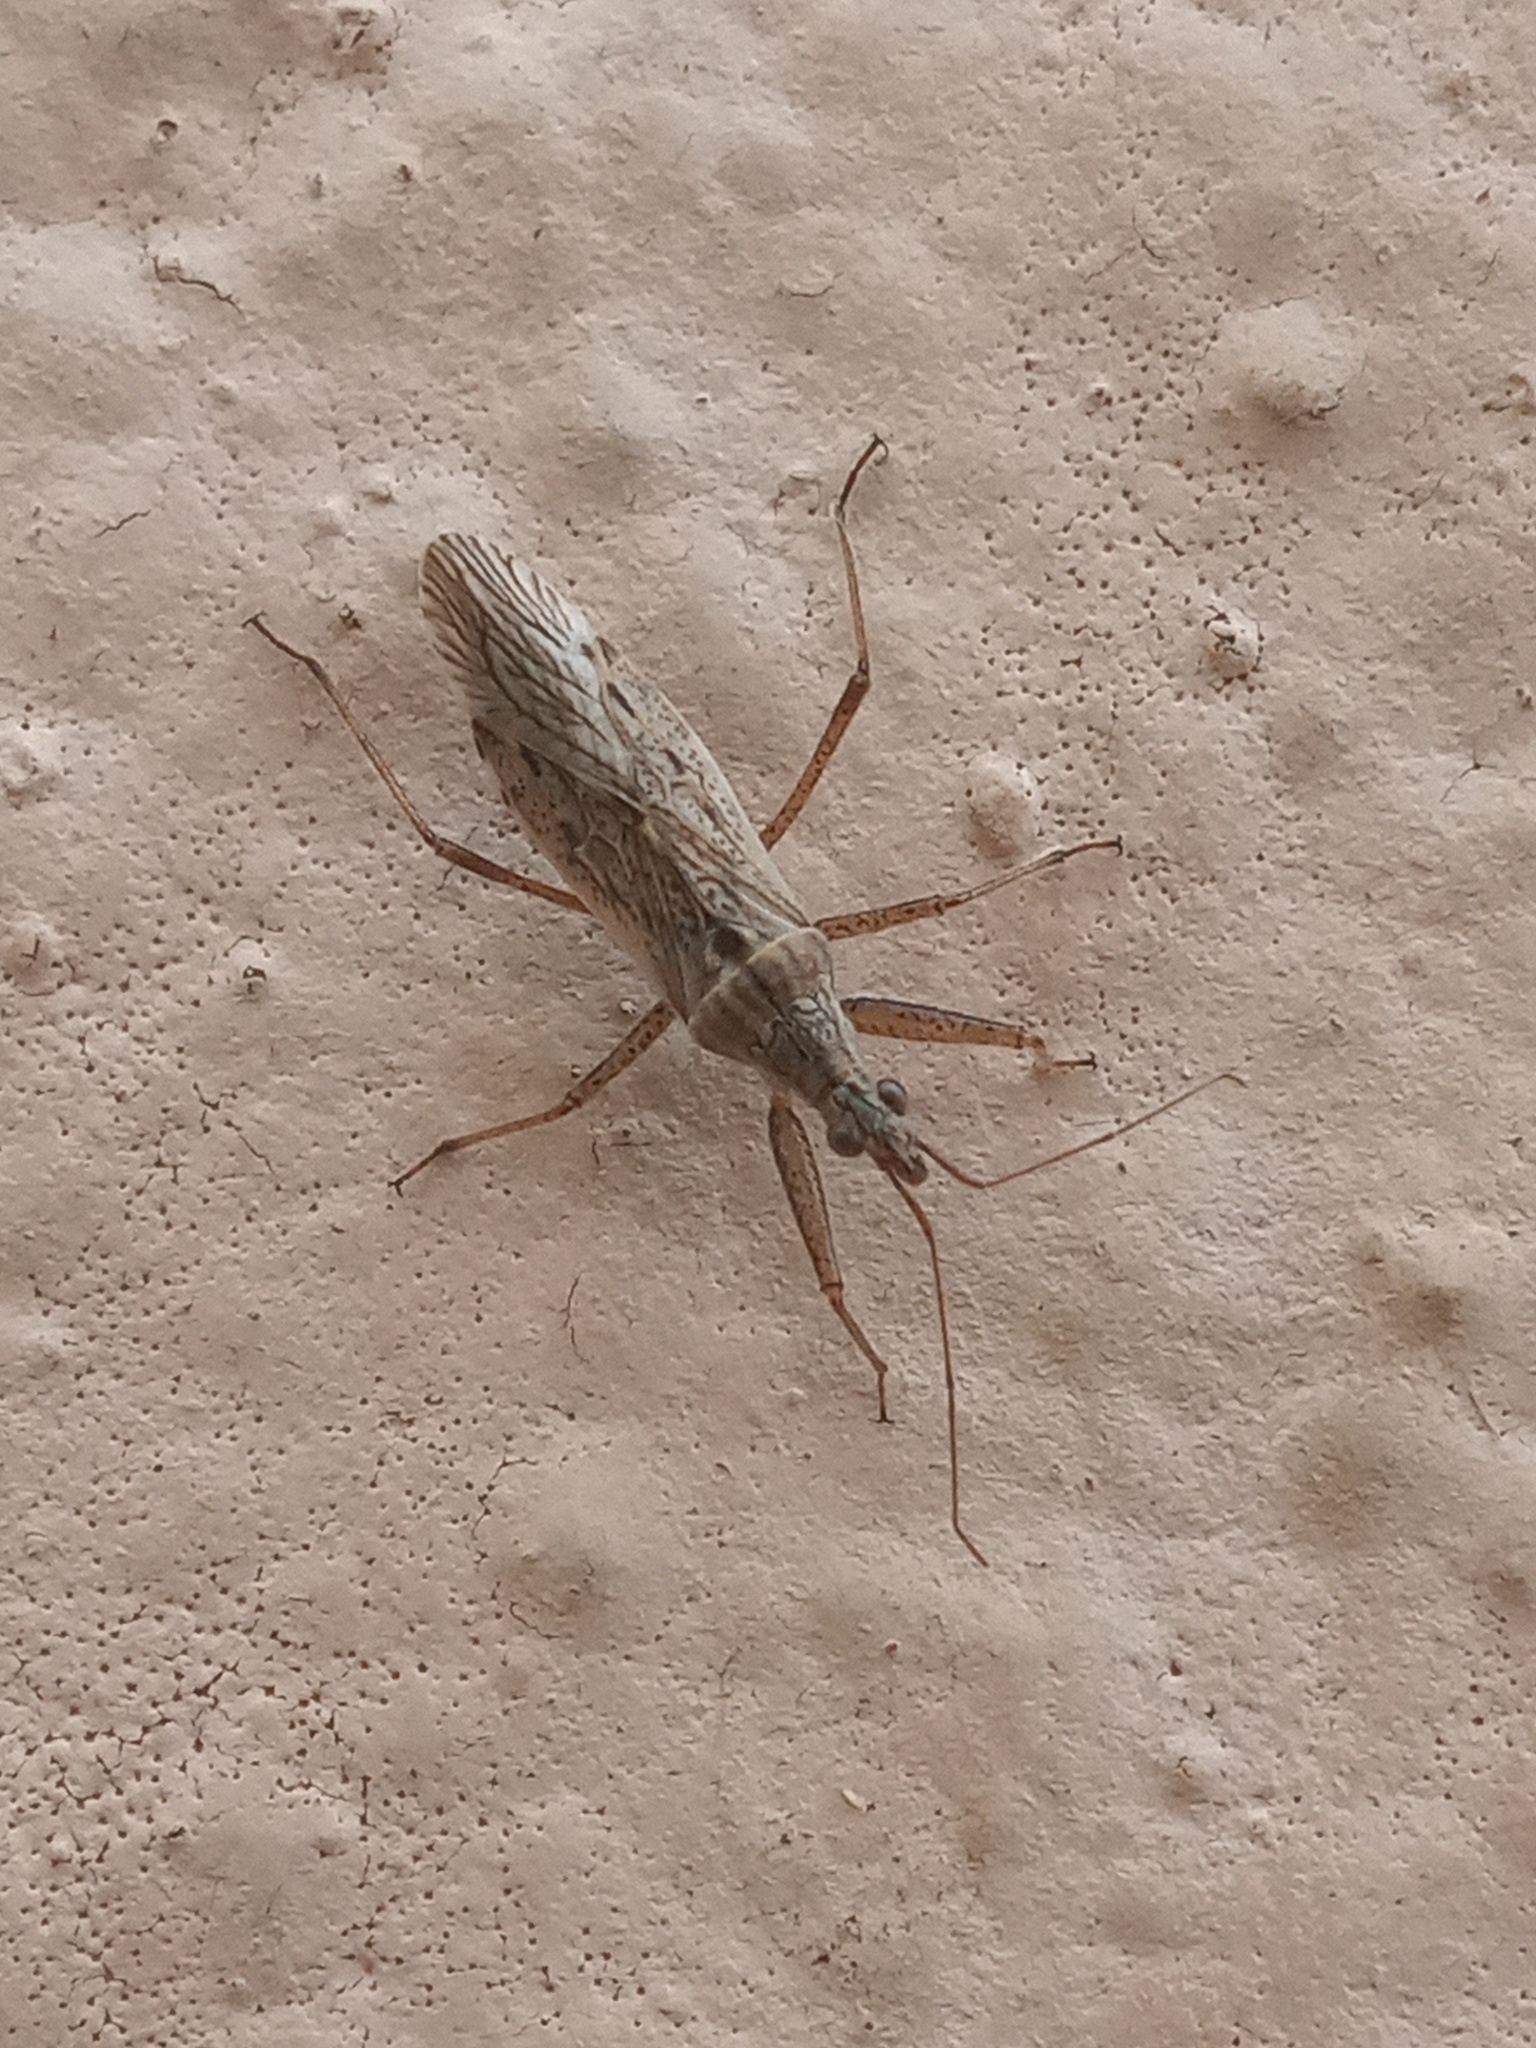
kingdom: Animalia
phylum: Arthropoda
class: Insecta
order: Hemiptera
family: Nabidae
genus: Nabis
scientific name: Nabis americoferus
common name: Common damsel bug
